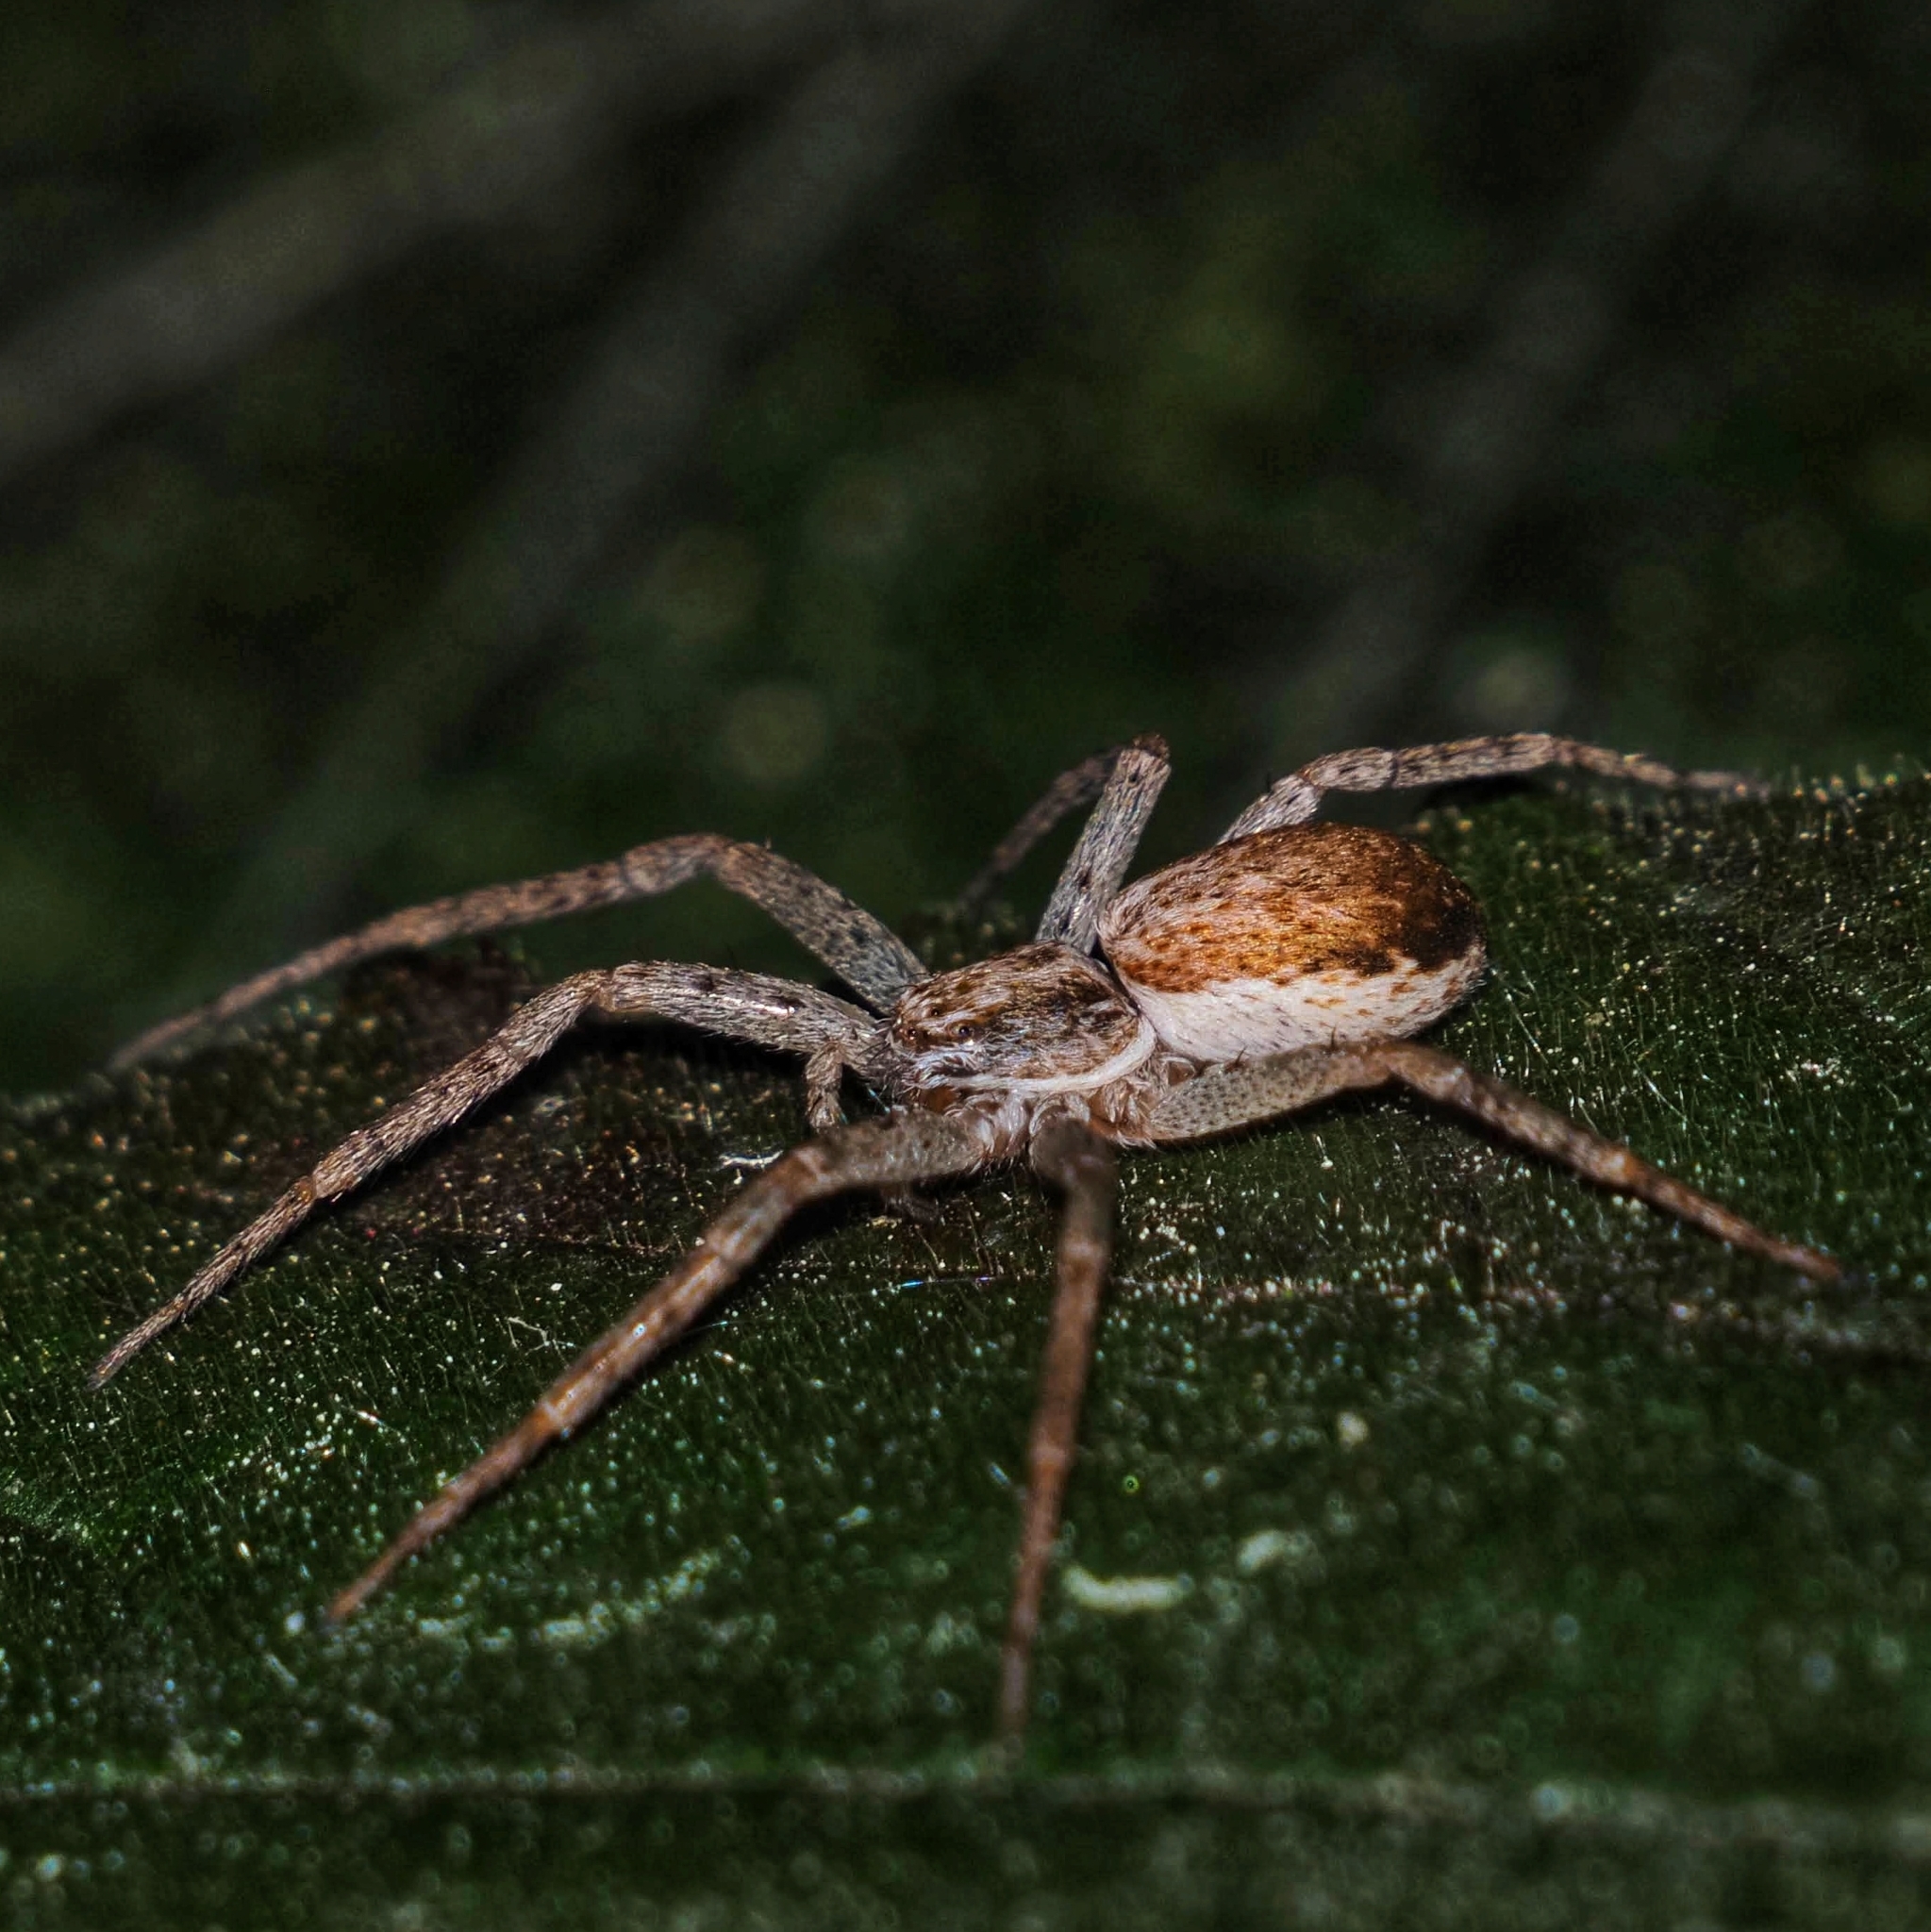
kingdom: Animalia
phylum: Arthropoda
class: Arachnida
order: Araneae
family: Philodromidae
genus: Philodromus
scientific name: Philodromus dispar
